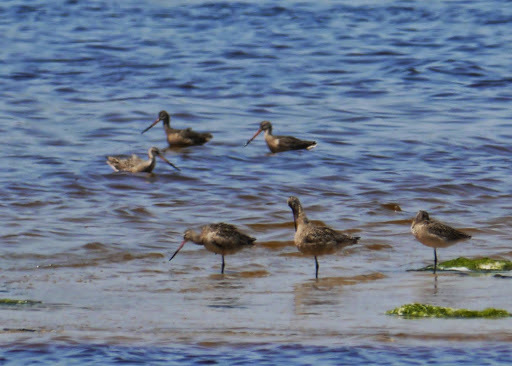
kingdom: Animalia
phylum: Chordata
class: Aves
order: Charadriiformes
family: Scolopacidae
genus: Limosa
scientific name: Limosa fedoa
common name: Marbled godwit
